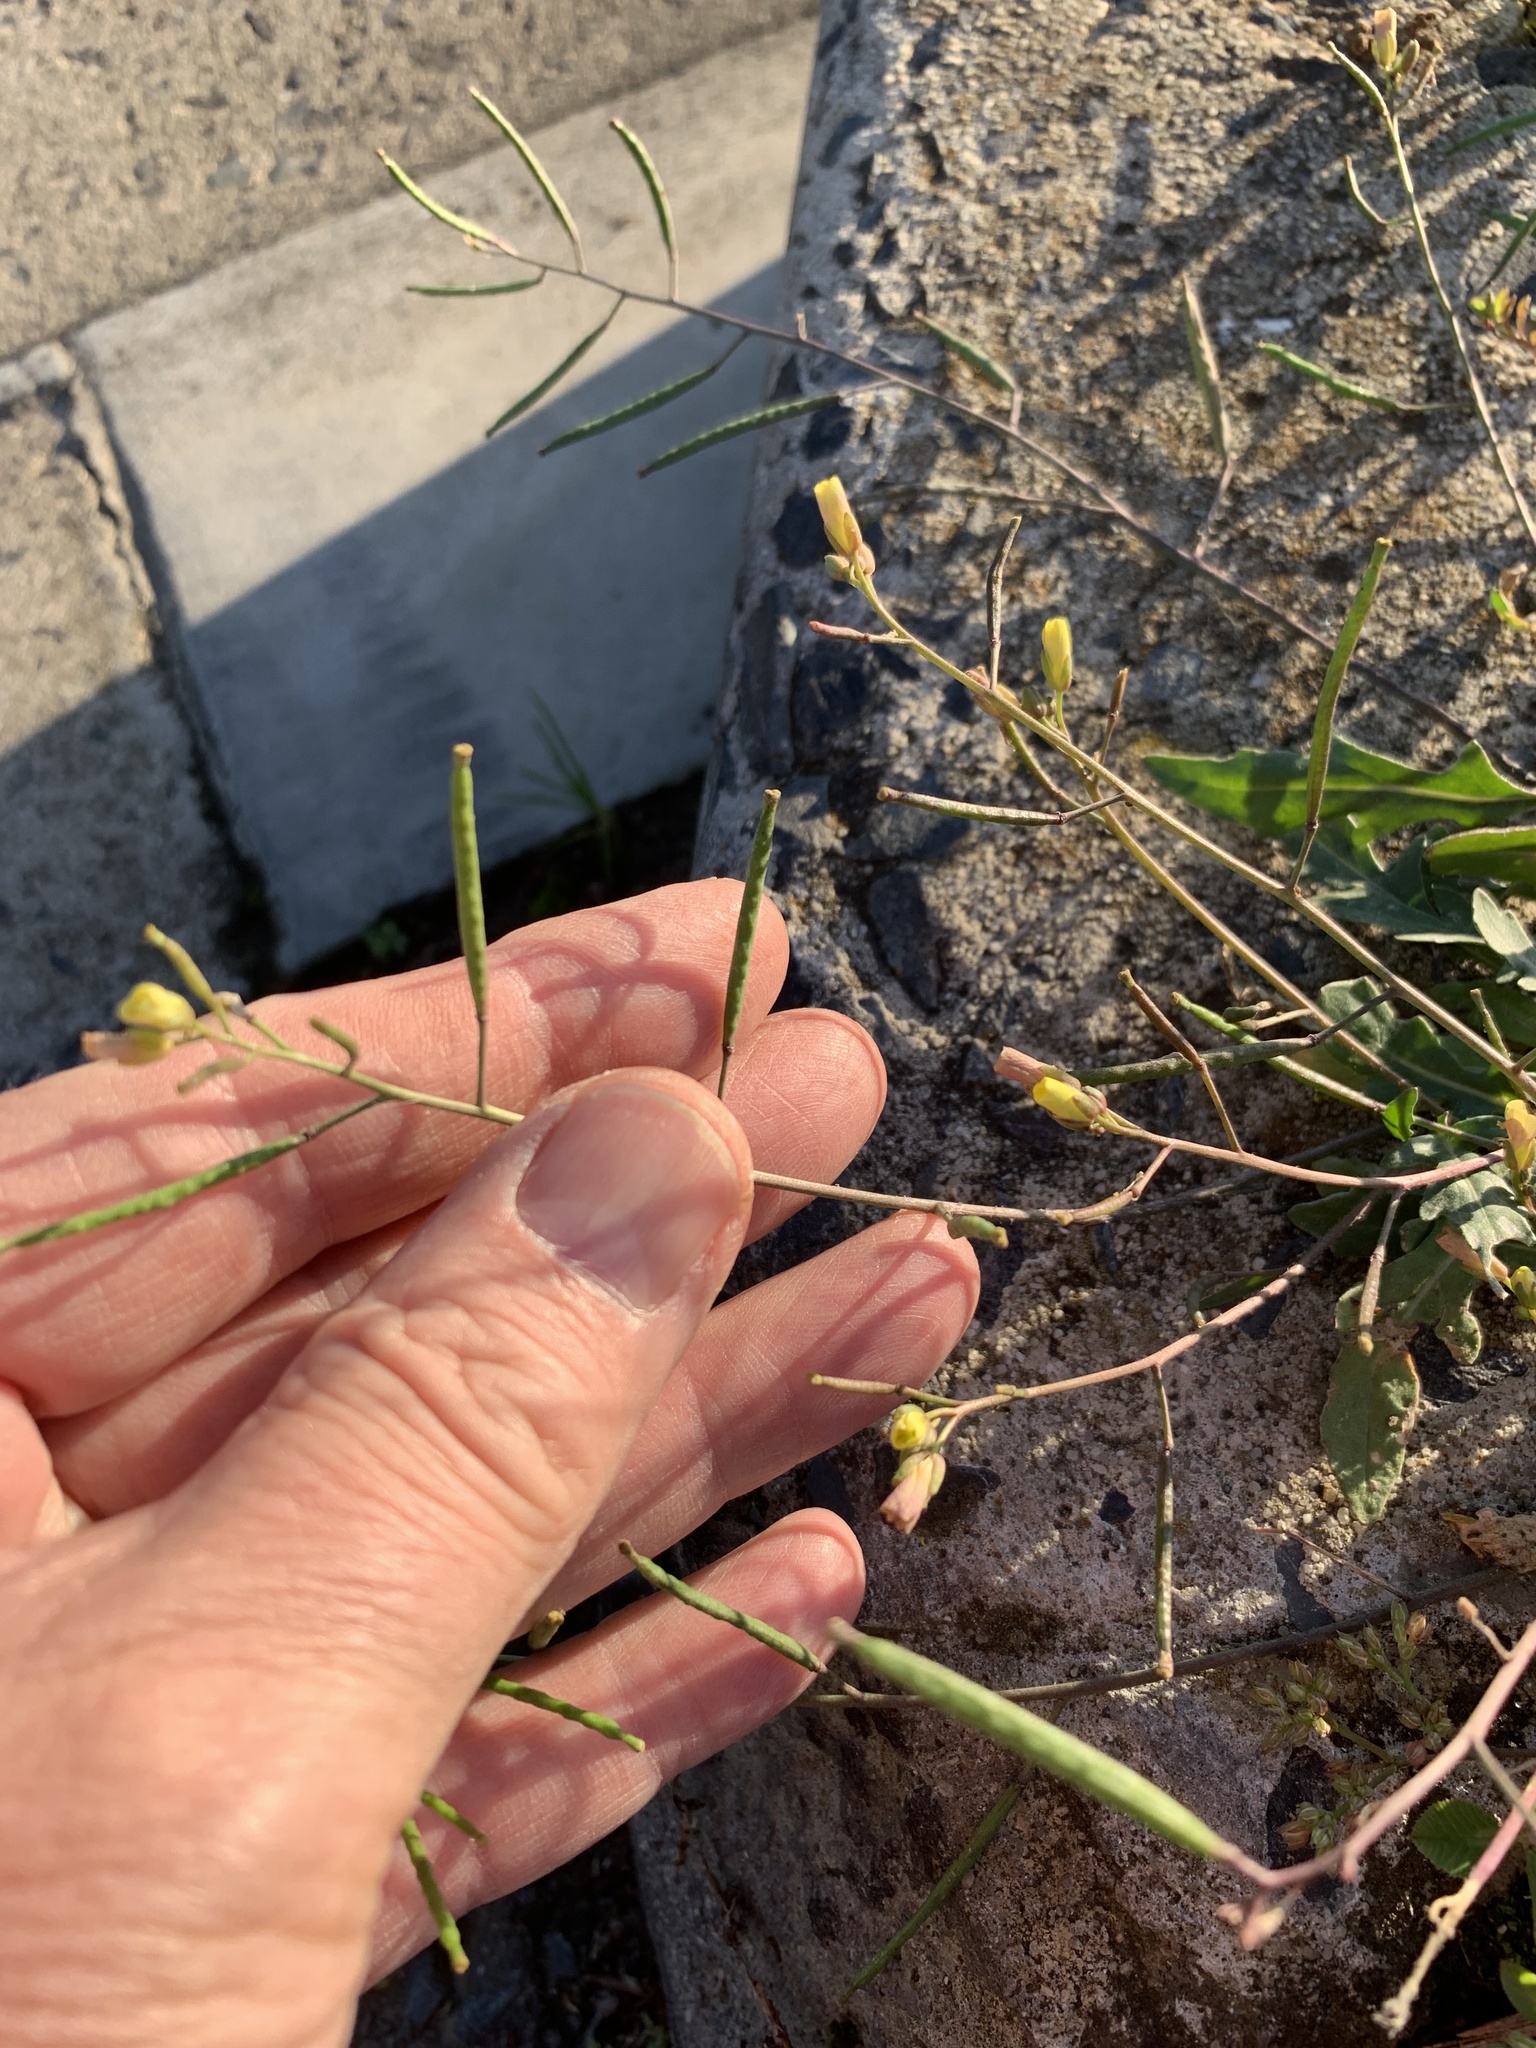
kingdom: Plantae
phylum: Tracheophyta
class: Magnoliopsida
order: Brassicales
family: Brassicaceae
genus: Diplotaxis
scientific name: Diplotaxis muralis
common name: Annual wall-rocket
